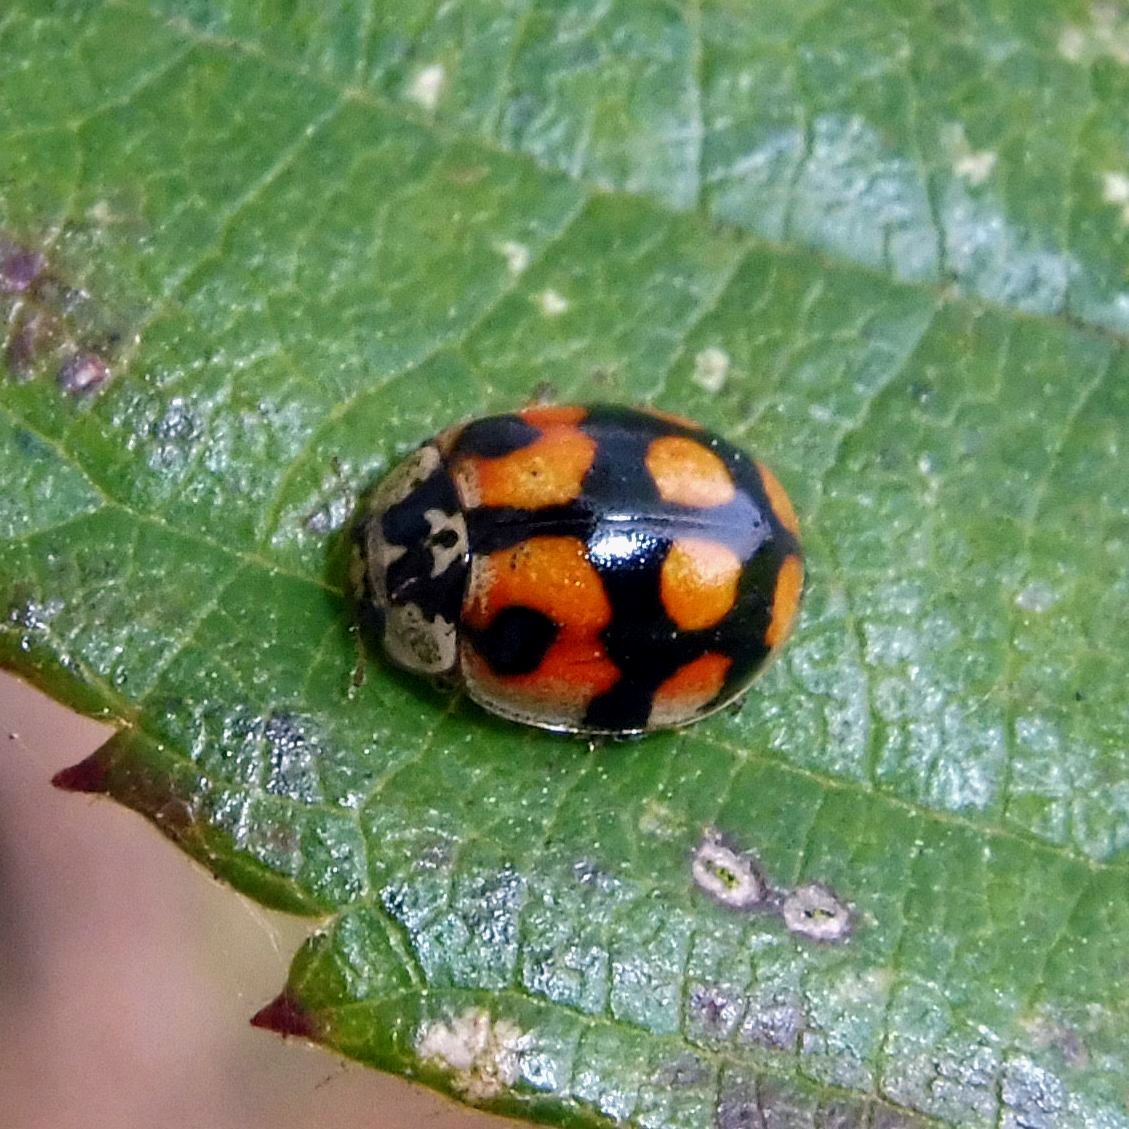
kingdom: Animalia
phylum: Arthropoda
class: Insecta
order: Coleoptera
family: Coccinellidae
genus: Adalia
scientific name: Adalia decempunctata
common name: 10-spot ladybird
